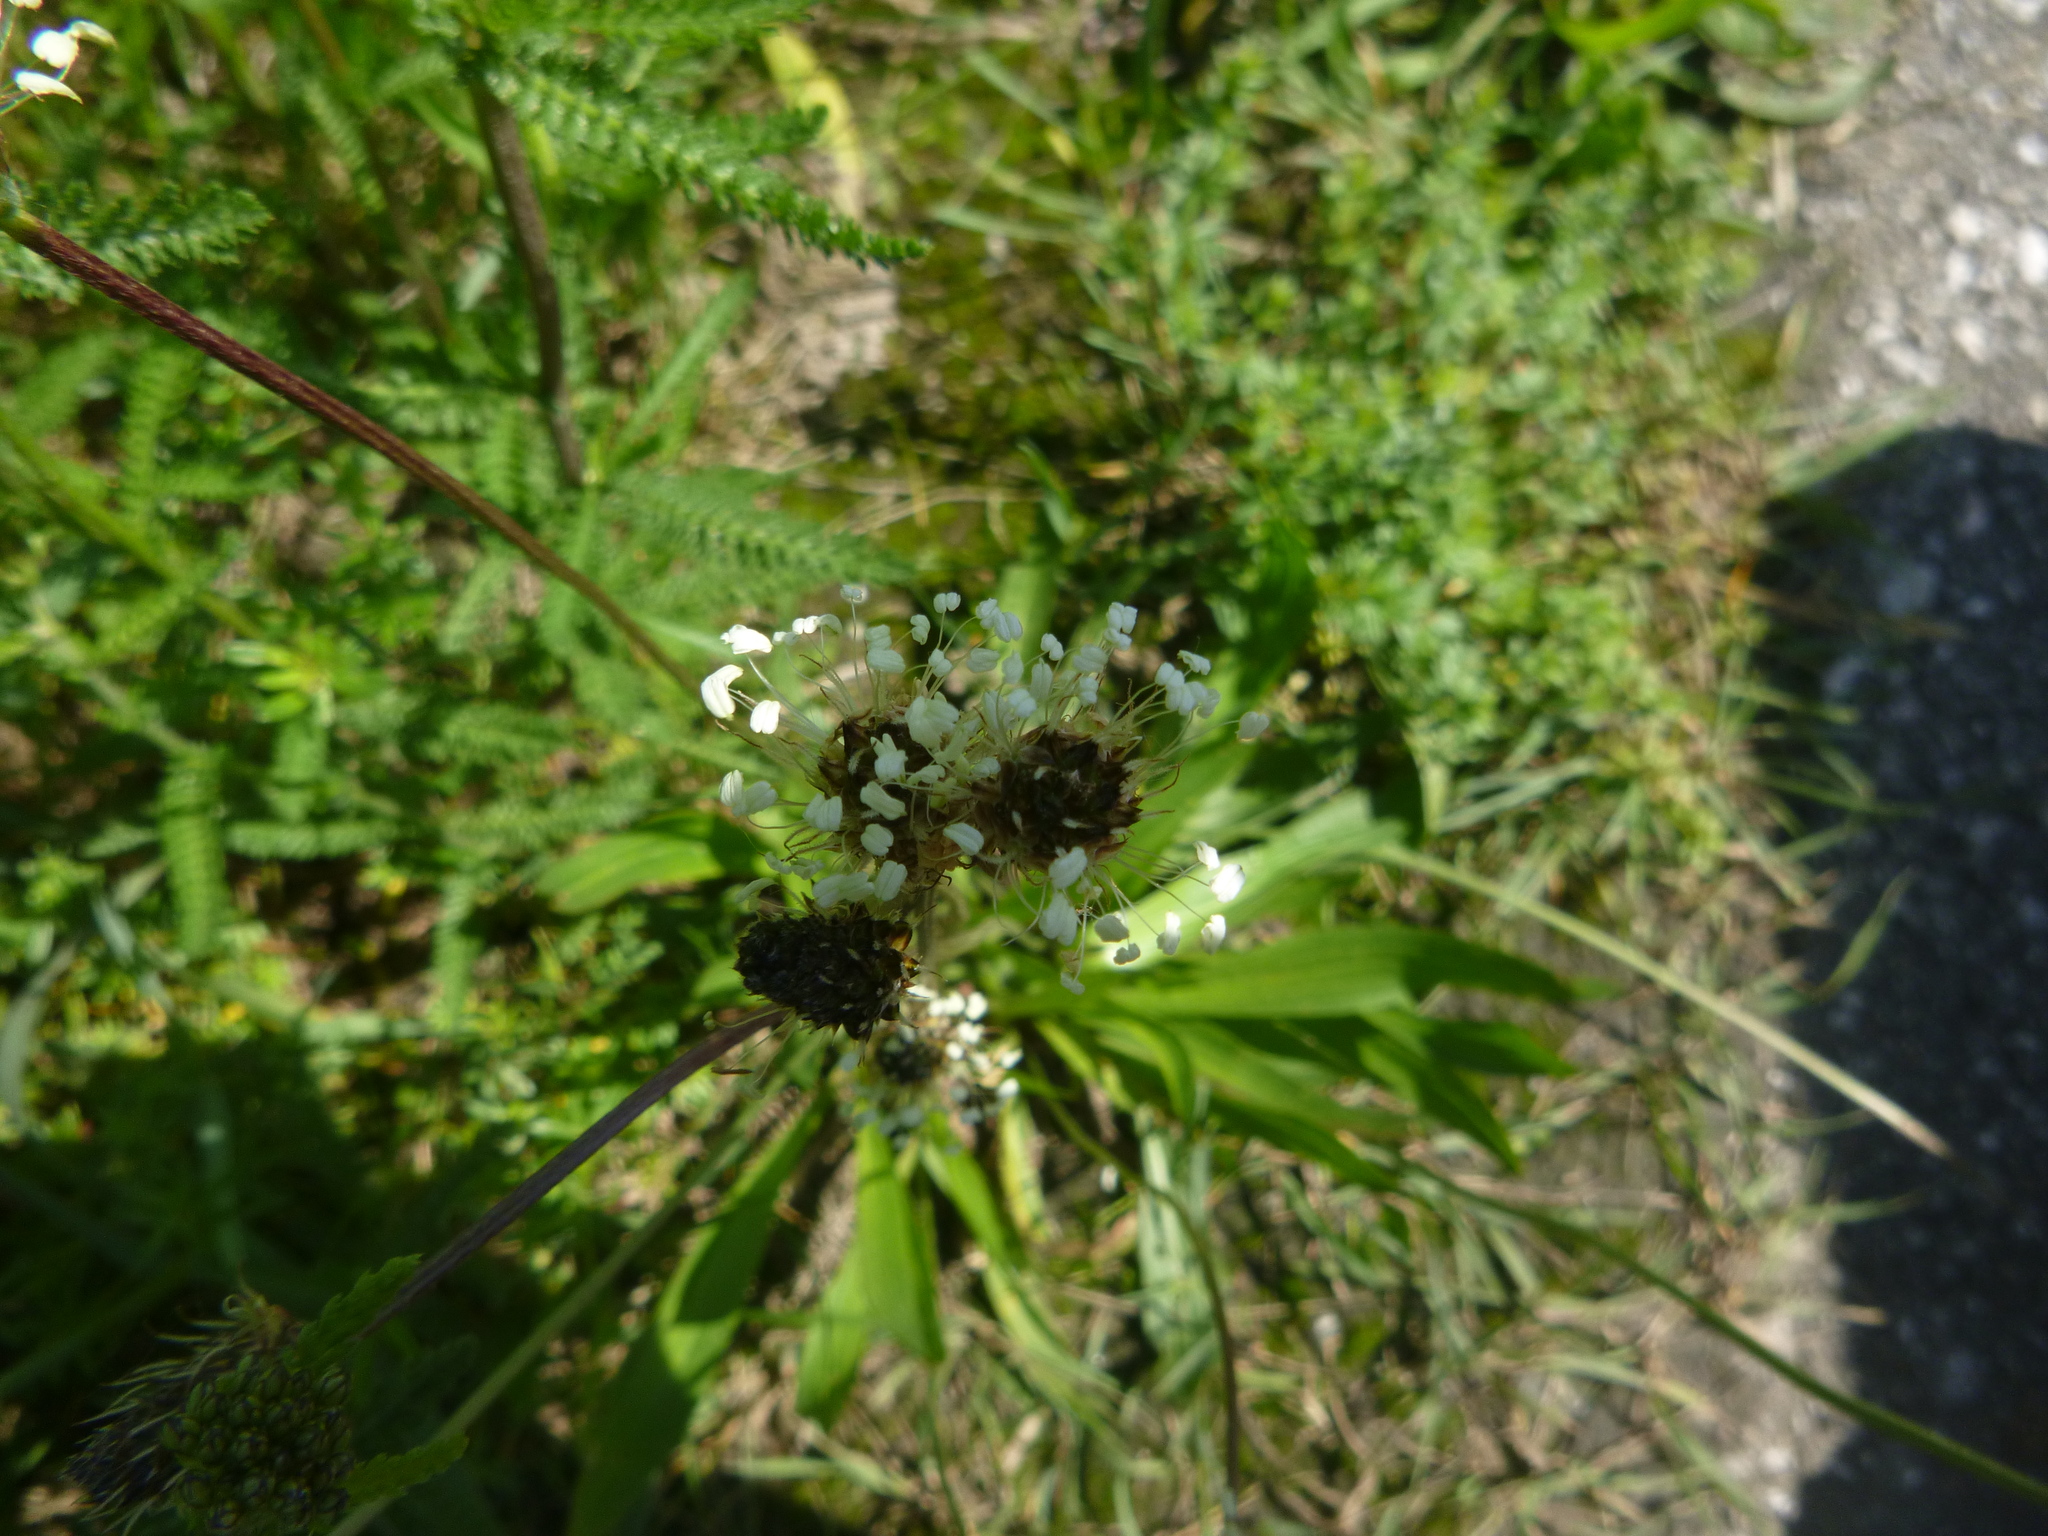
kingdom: Plantae
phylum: Tracheophyta
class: Magnoliopsida
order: Lamiales
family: Plantaginaceae
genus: Plantago
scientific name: Plantago lanceolata
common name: Ribwort plantain
